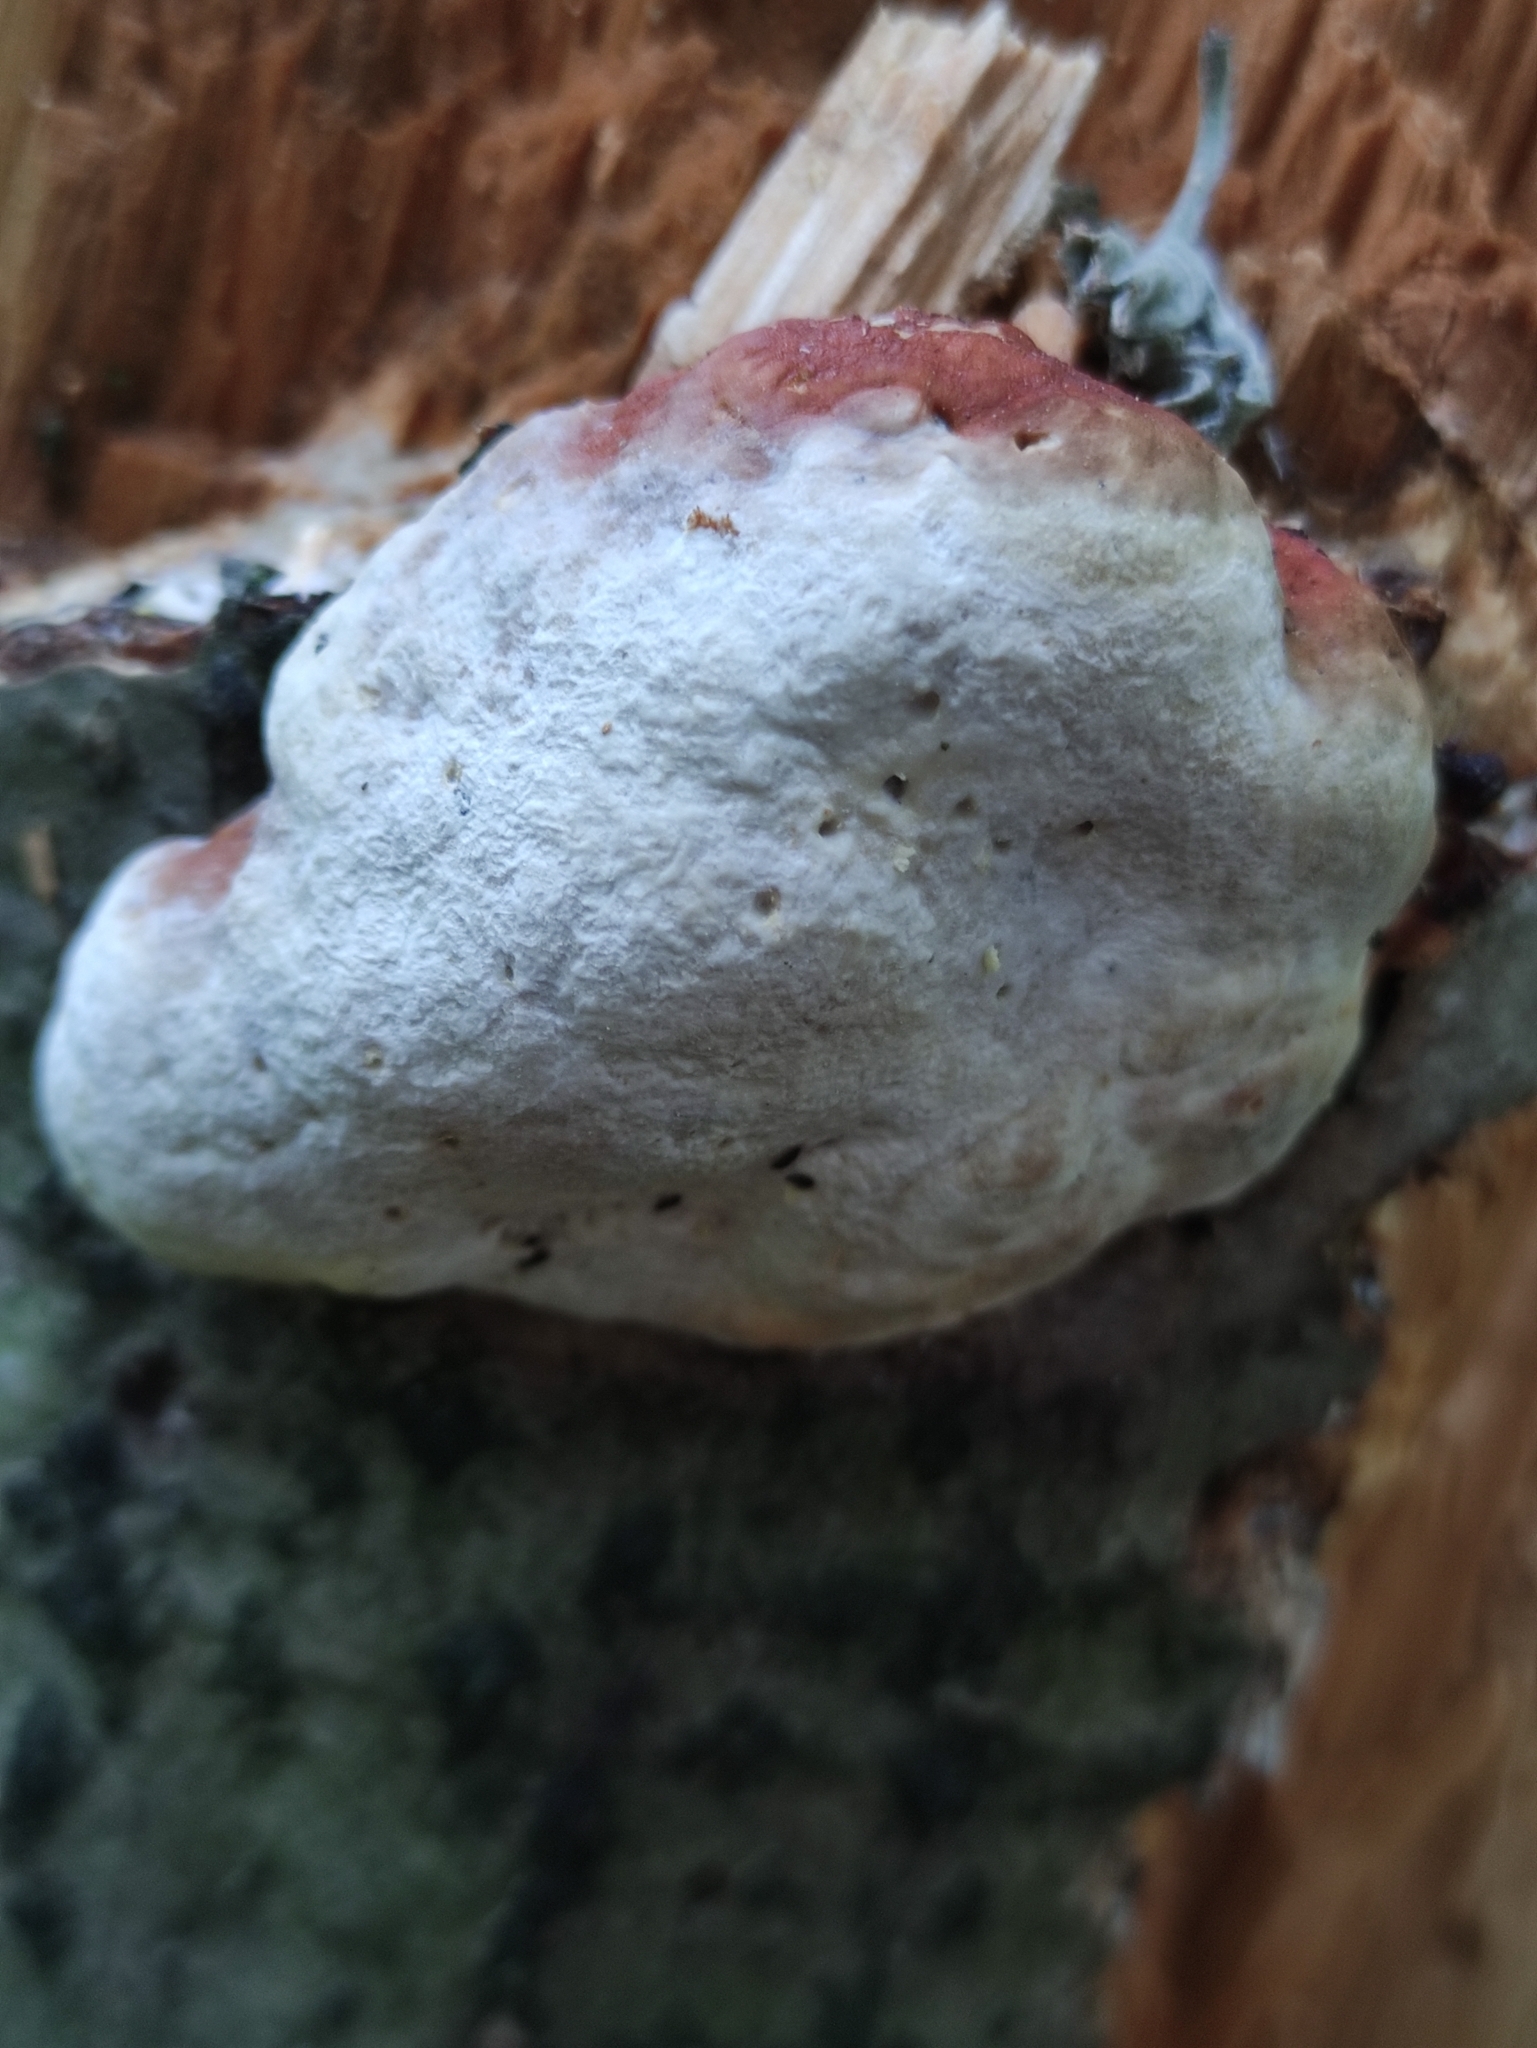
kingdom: Fungi
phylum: Basidiomycota
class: Agaricomycetes
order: Polyporales
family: Fomitopsidaceae
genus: Fomitopsis
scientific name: Fomitopsis pinicola
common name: Red-belted bracket
